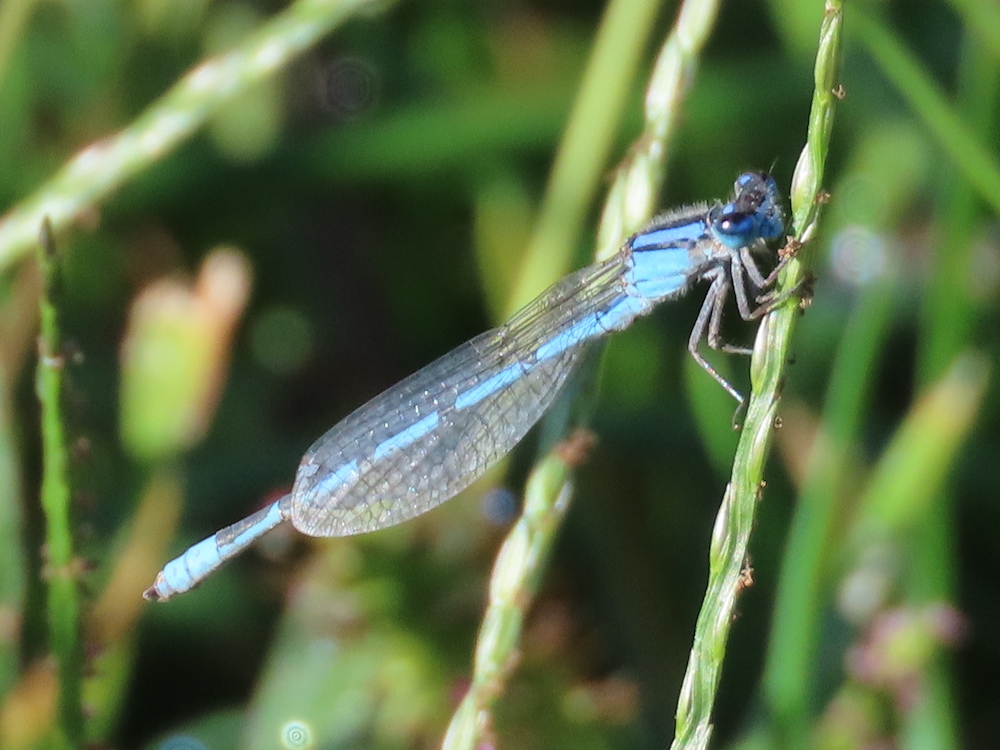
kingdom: Animalia
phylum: Arthropoda
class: Insecta
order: Odonata
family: Coenagrionidae
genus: Enallagma
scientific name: Enallagma civile
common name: Damselfly
